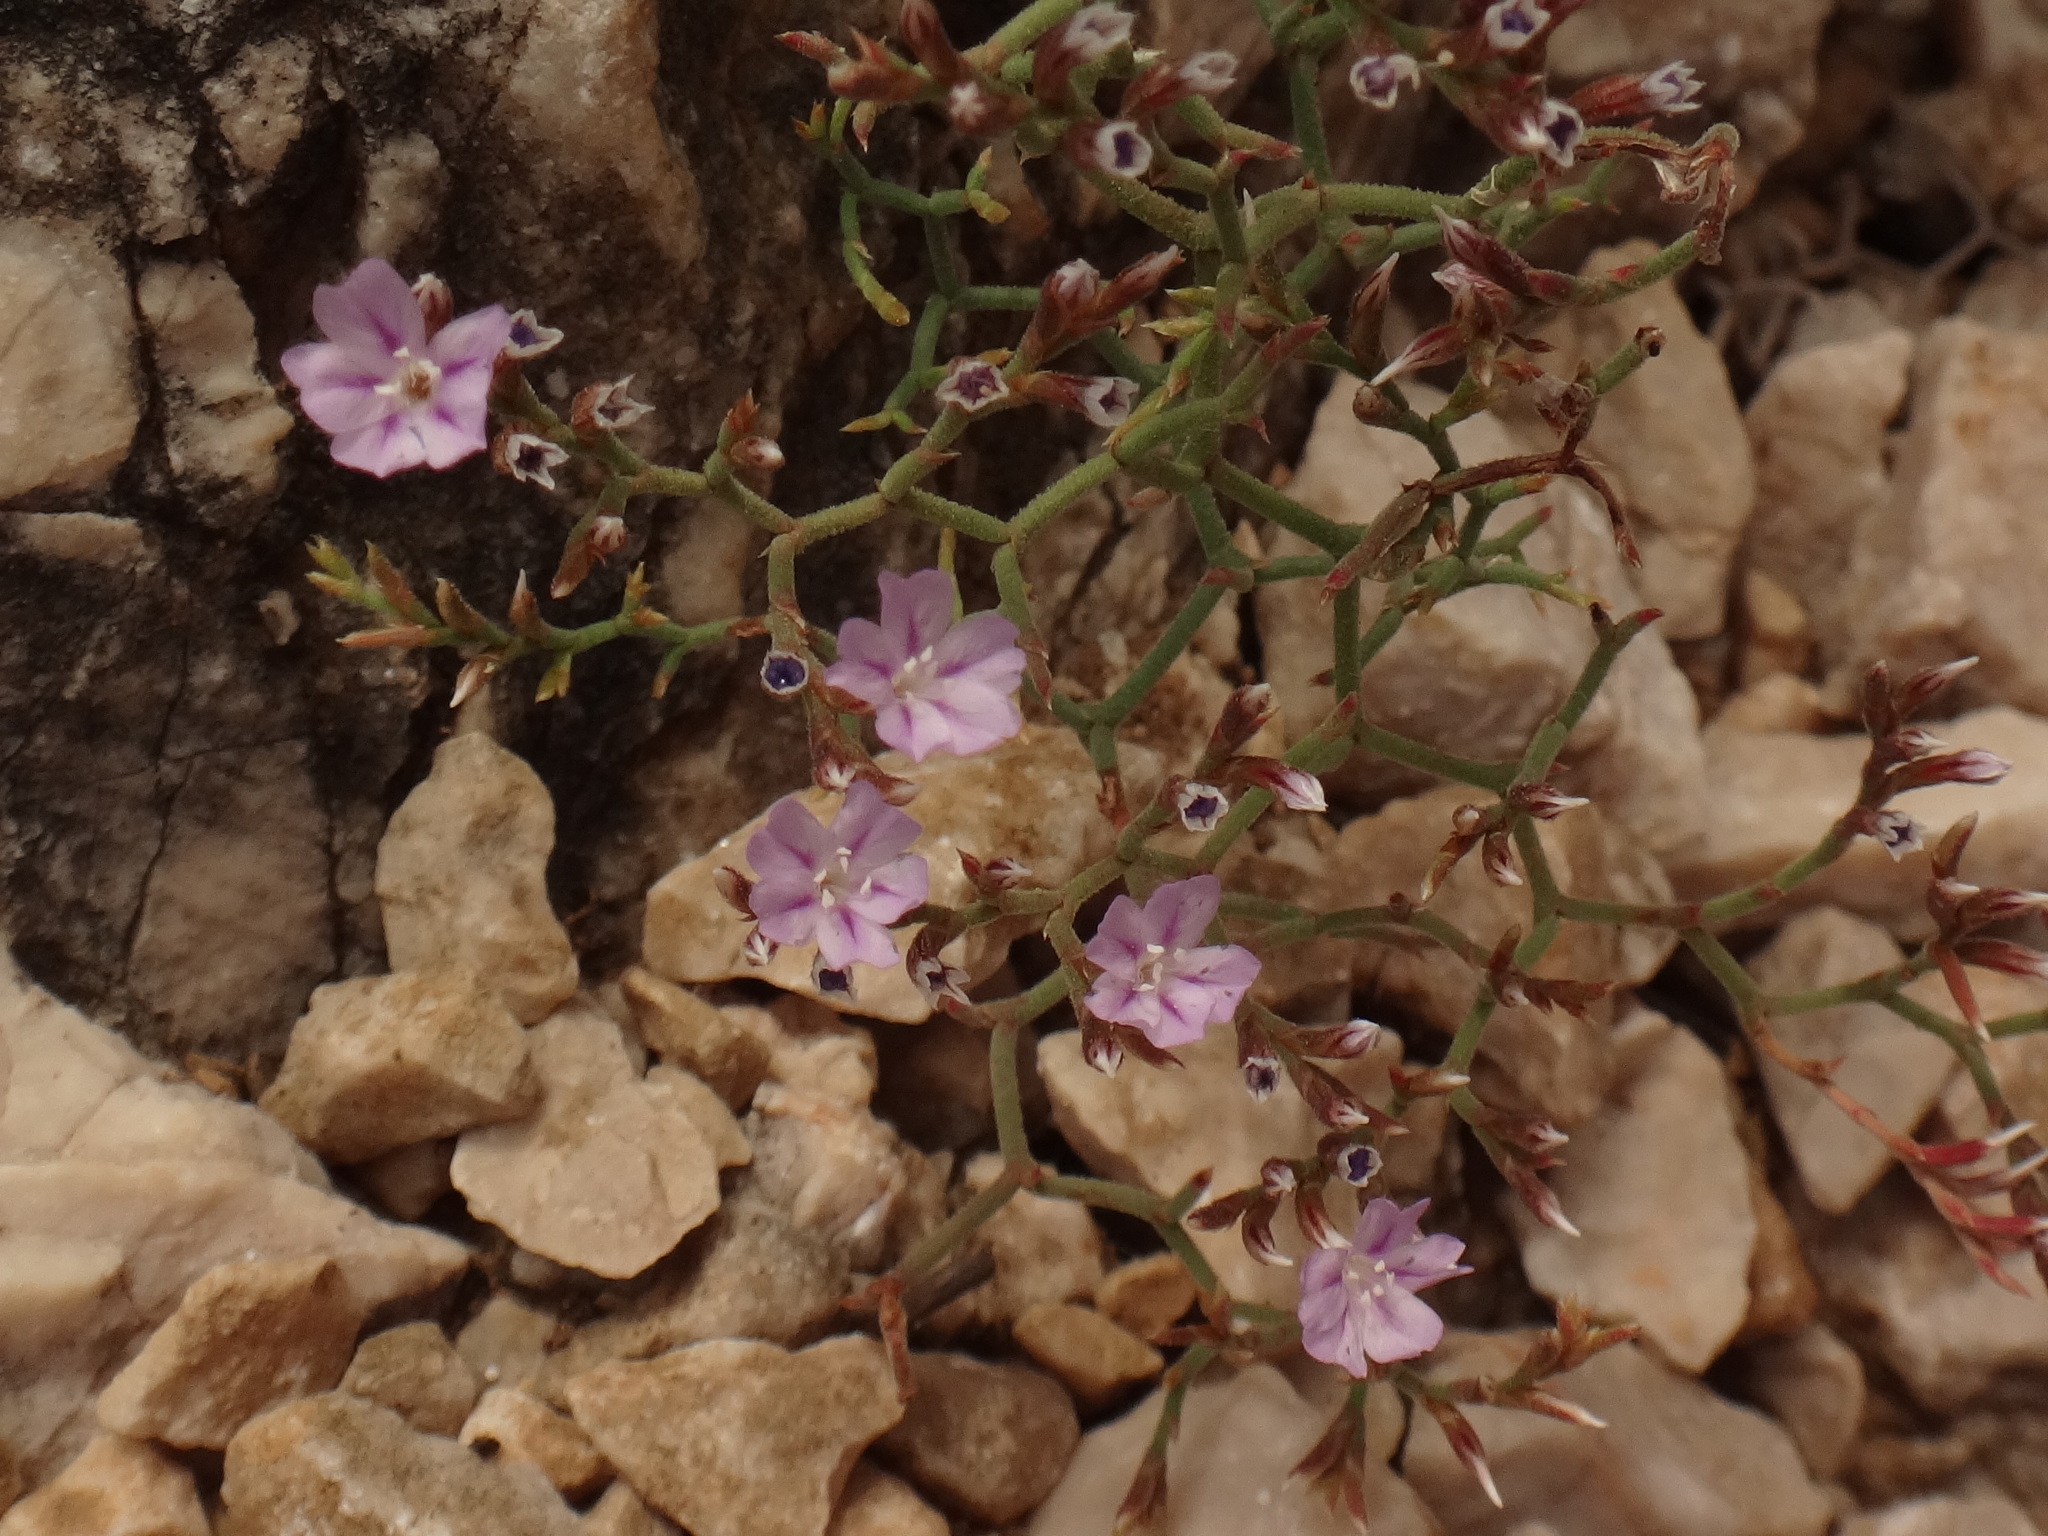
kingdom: Plantae
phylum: Tracheophyta
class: Magnoliopsida
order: Caryophyllales
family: Plumbaginaceae
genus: Limonium
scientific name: Limonium cancellatum
